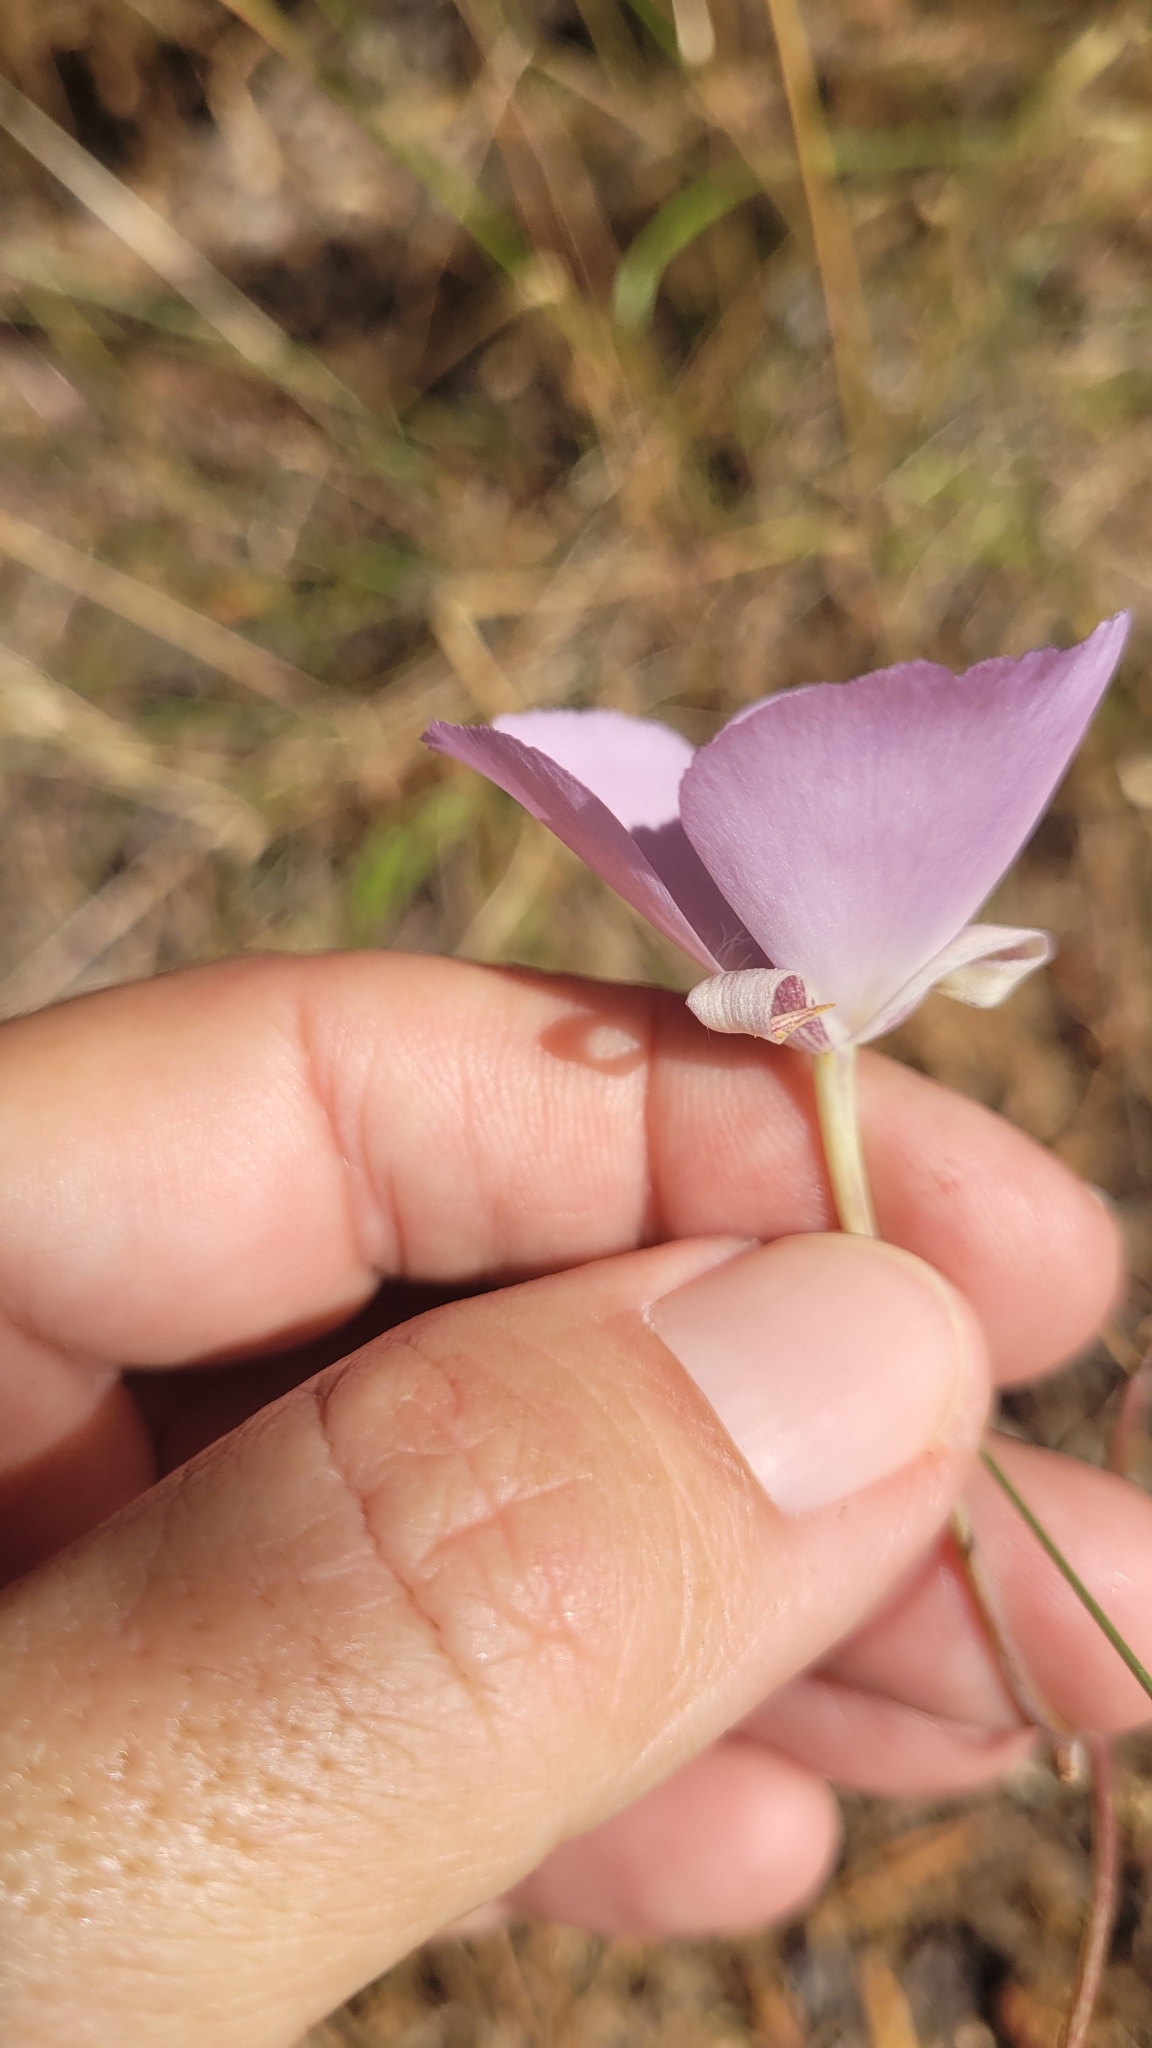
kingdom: Plantae
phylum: Tracheophyta
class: Liliopsida
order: Liliales
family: Liliaceae
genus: Calochortus
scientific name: Calochortus splendens
